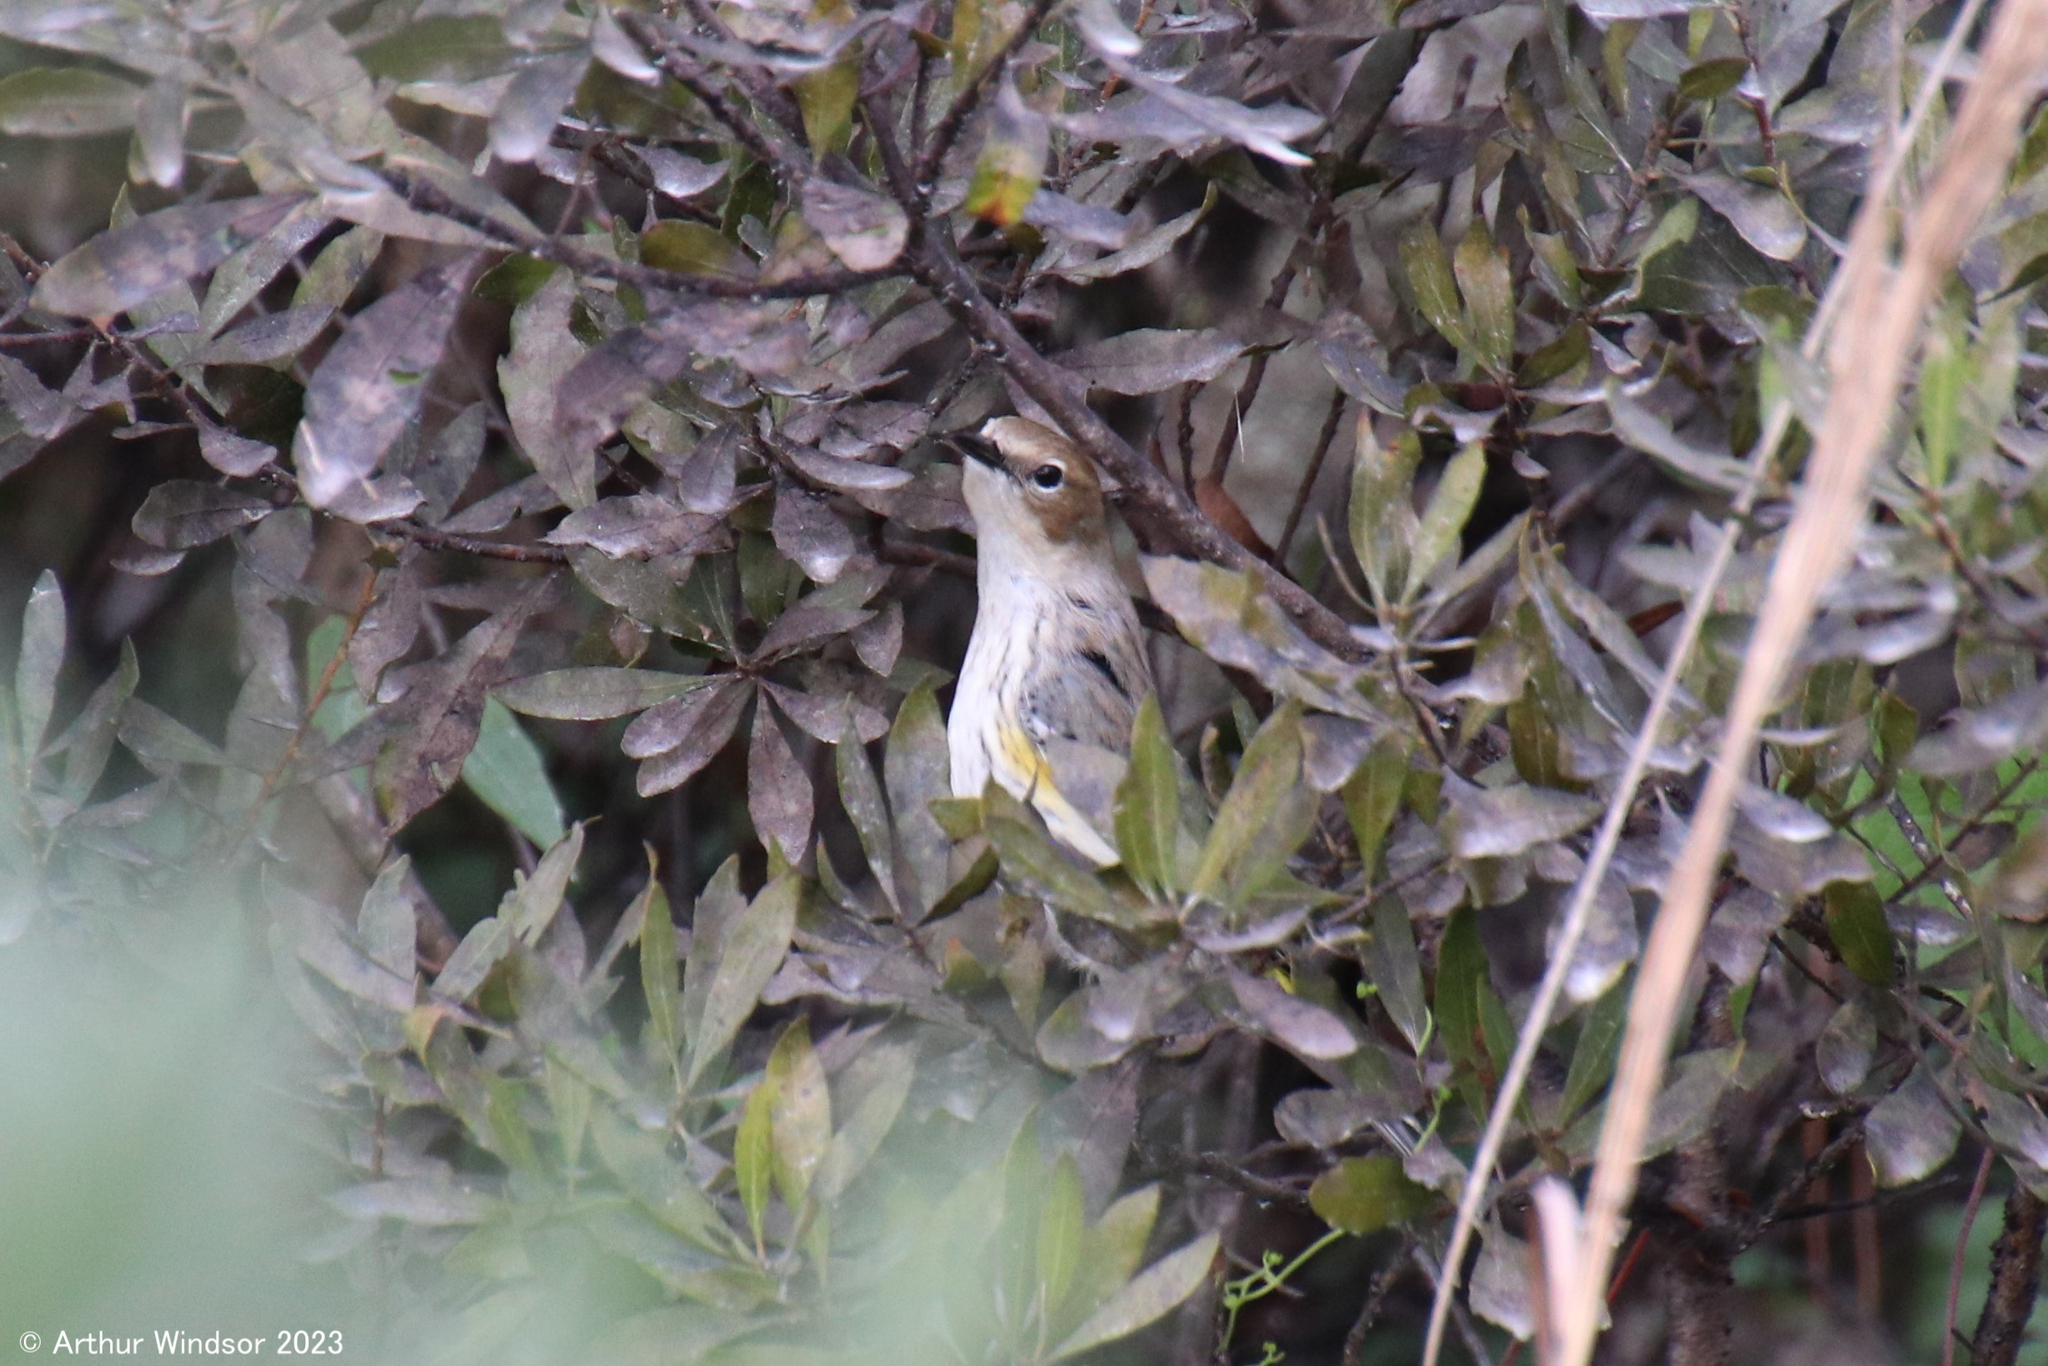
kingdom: Animalia
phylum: Chordata
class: Aves
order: Passeriformes
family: Parulidae
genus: Setophaga
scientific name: Setophaga coronata
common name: Myrtle warbler
